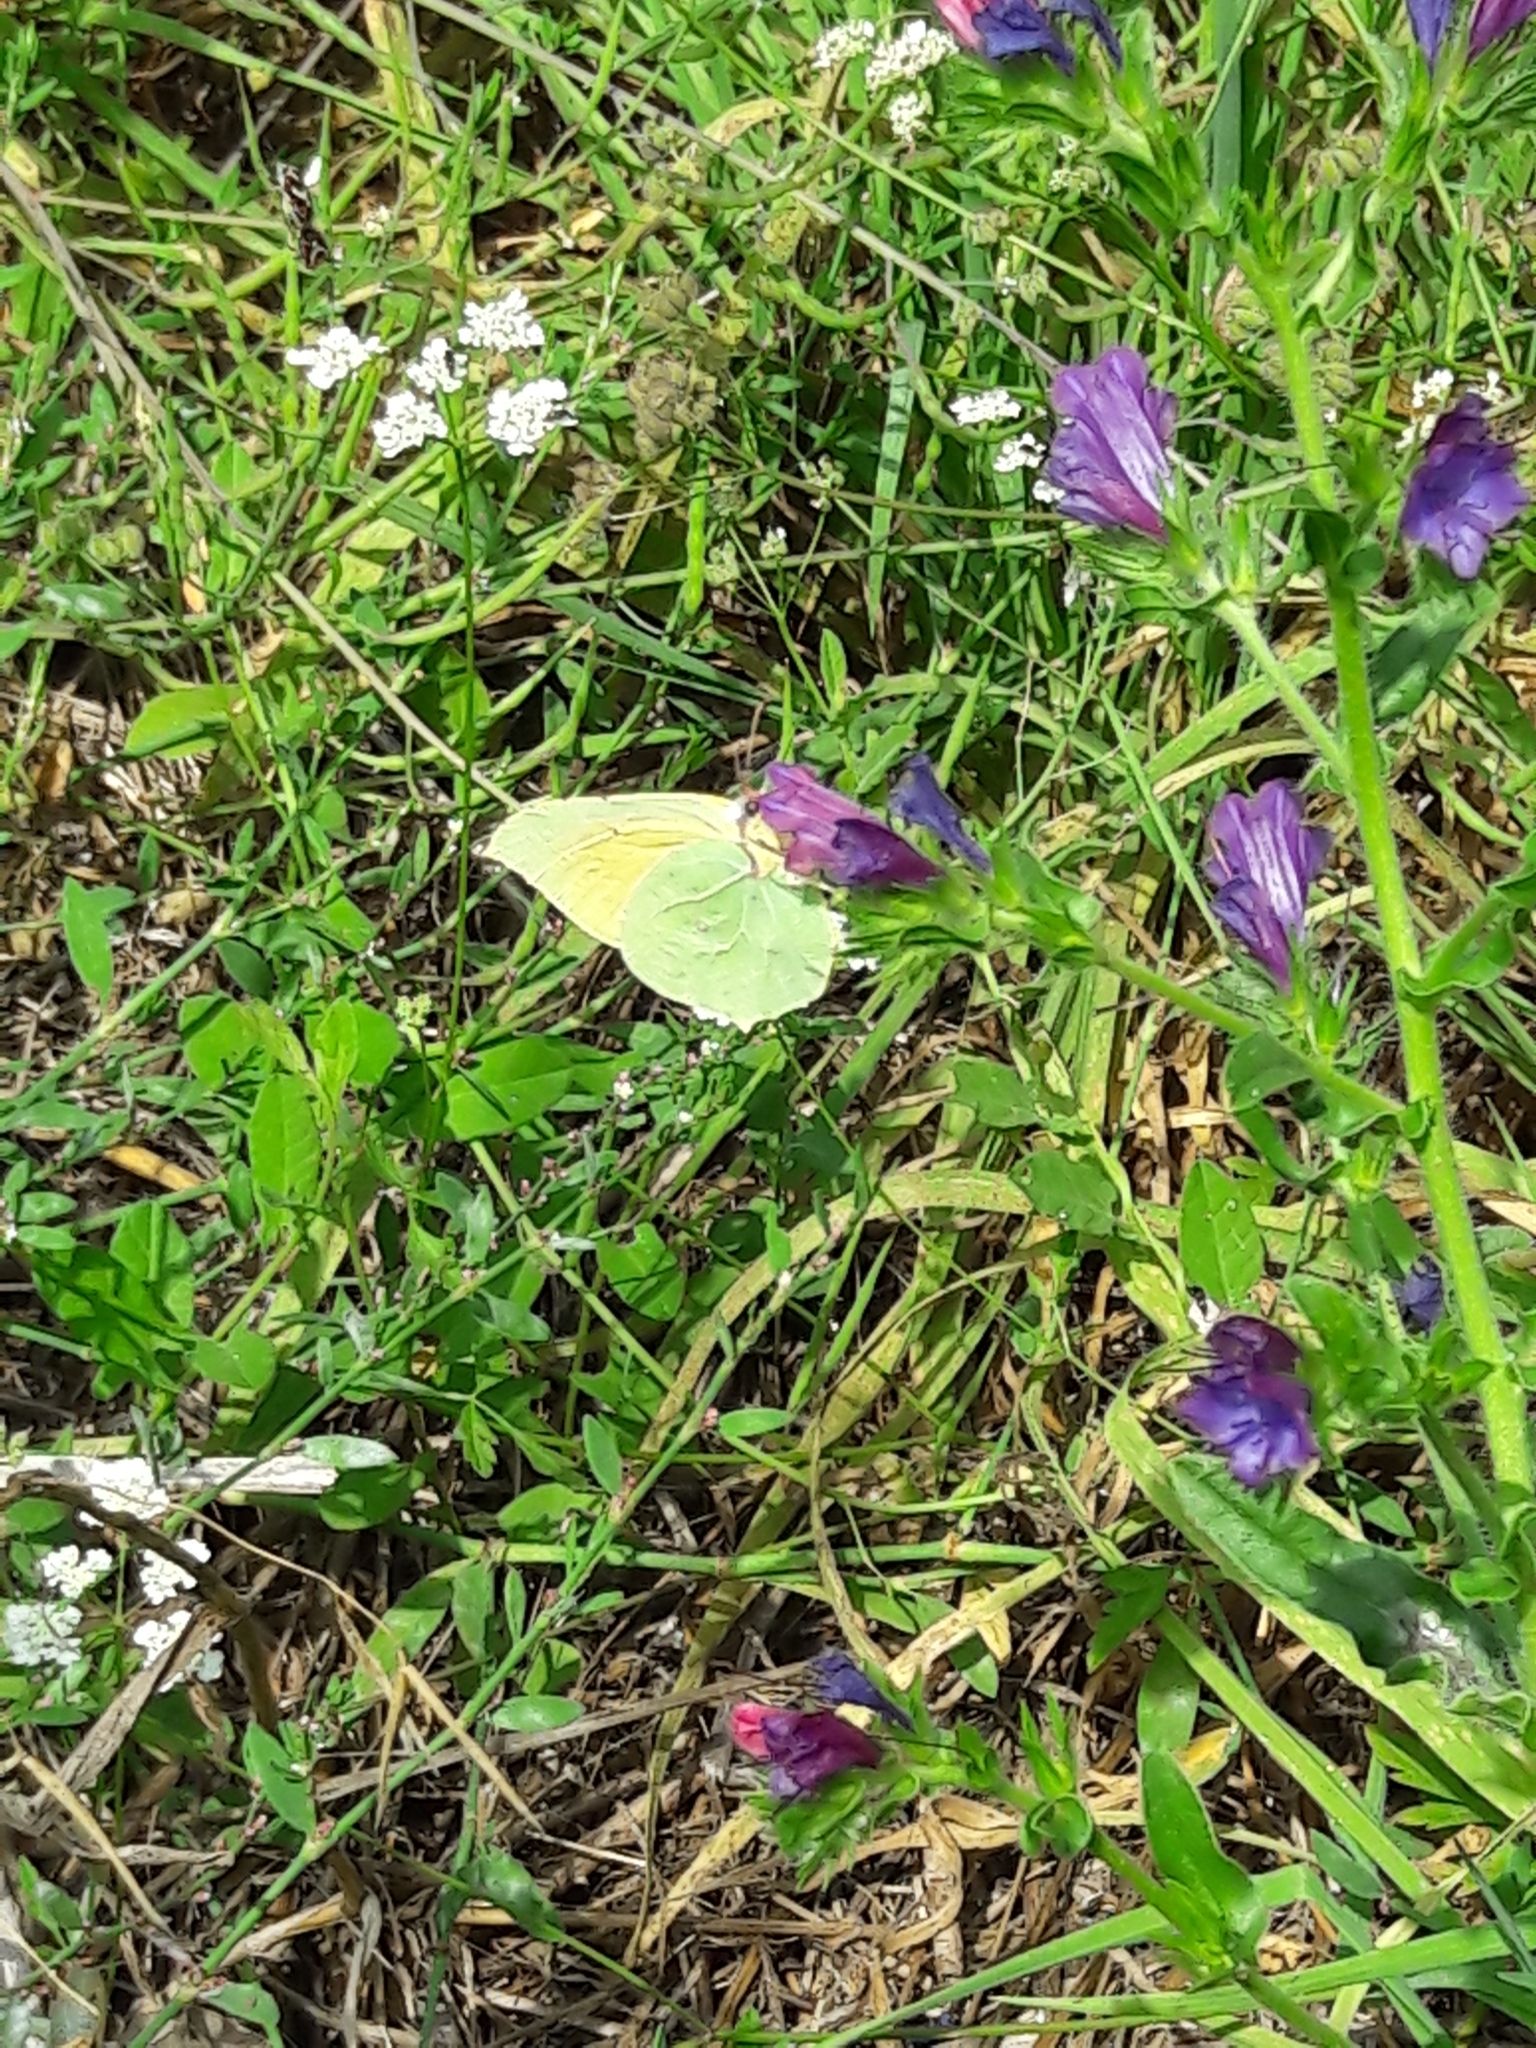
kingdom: Animalia
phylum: Arthropoda
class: Insecta
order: Lepidoptera
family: Pieridae
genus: Gonepteryx
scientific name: Gonepteryx cleopatra
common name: Cleopatra
